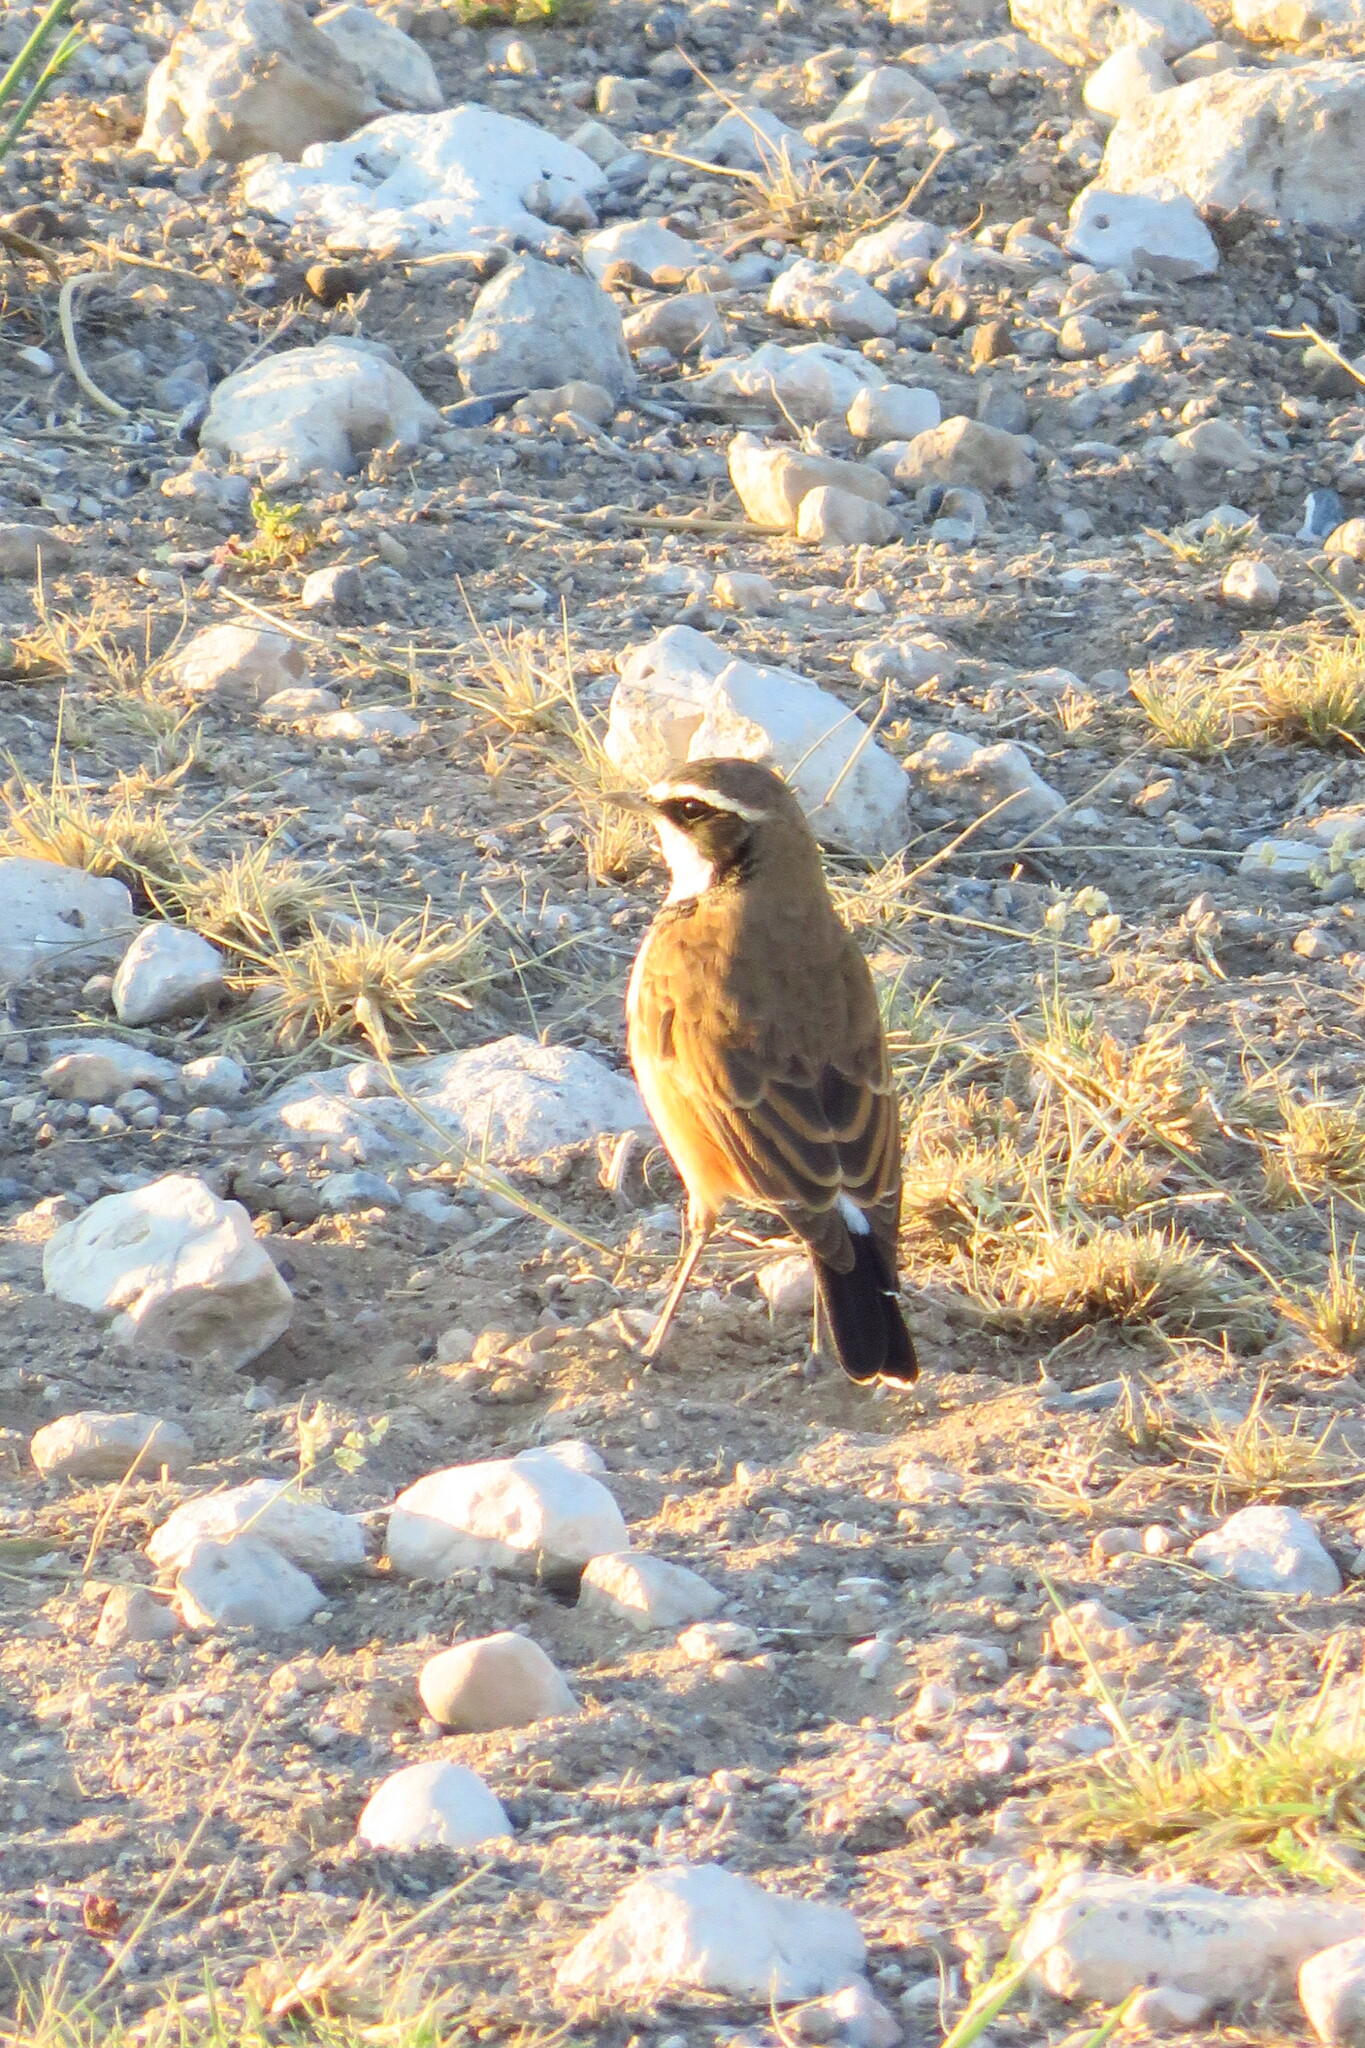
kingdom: Animalia
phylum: Chordata
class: Aves
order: Passeriformes
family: Muscicapidae
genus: Oenanthe
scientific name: Oenanthe pileata
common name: Capped wheatear
